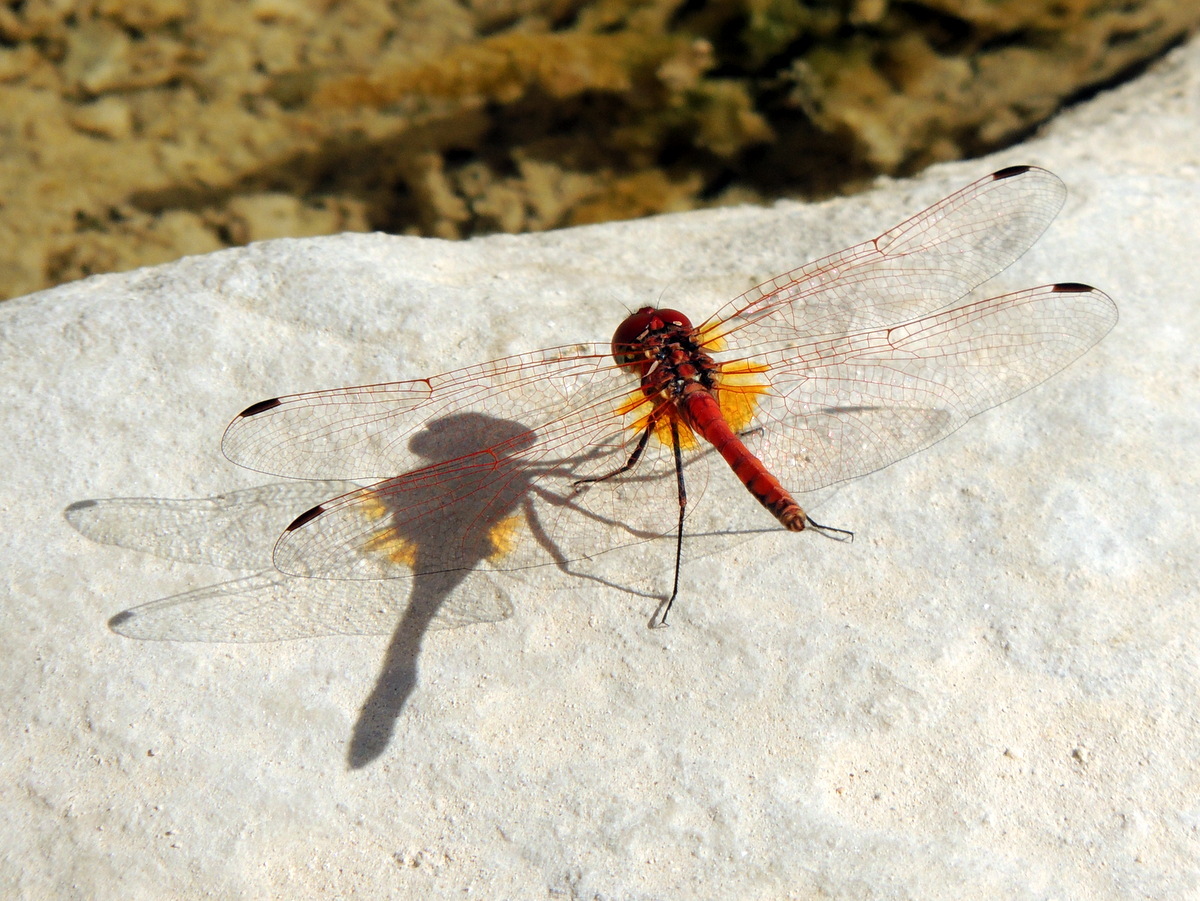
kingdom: Animalia
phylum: Arthropoda
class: Insecta
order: Odonata
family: Libellulidae
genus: Trithemis
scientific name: Trithemis arteriosa
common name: Red-veined dropwing
